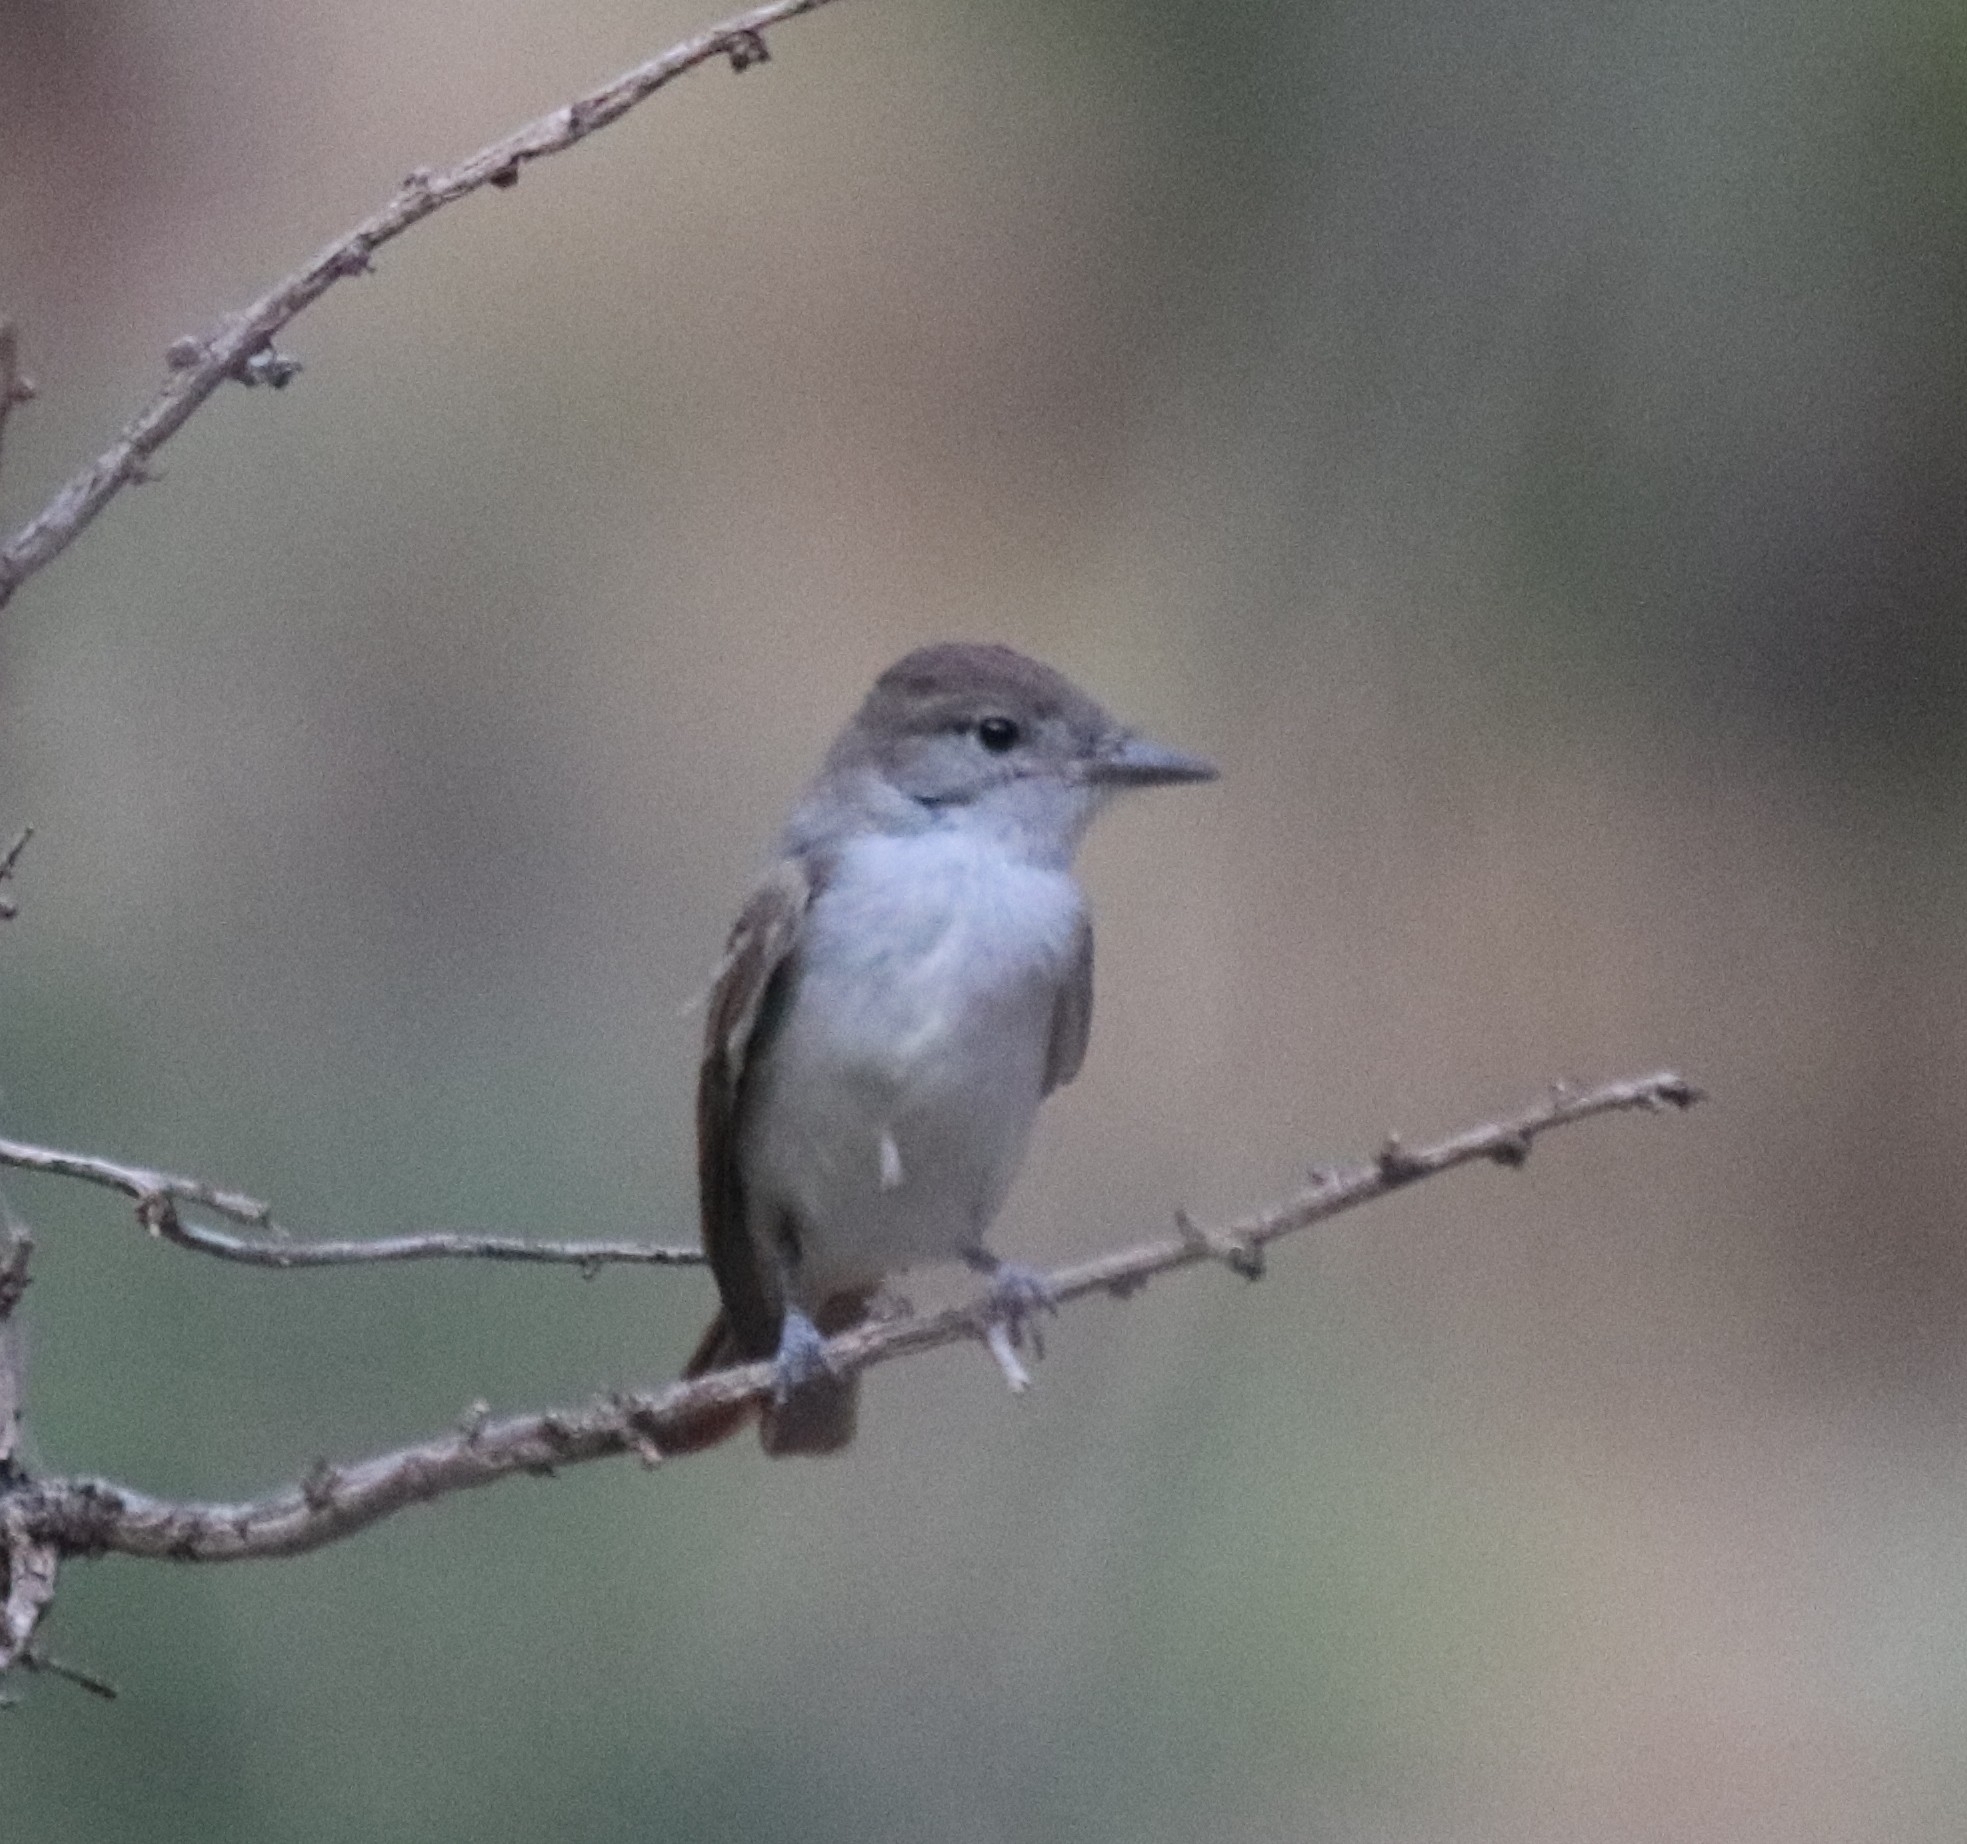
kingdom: Animalia
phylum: Chordata
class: Aves
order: Passeriformes
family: Tyrannidae
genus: Myiarchus
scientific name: Myiarchus cinerascens
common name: Ash-throated flycatcher
